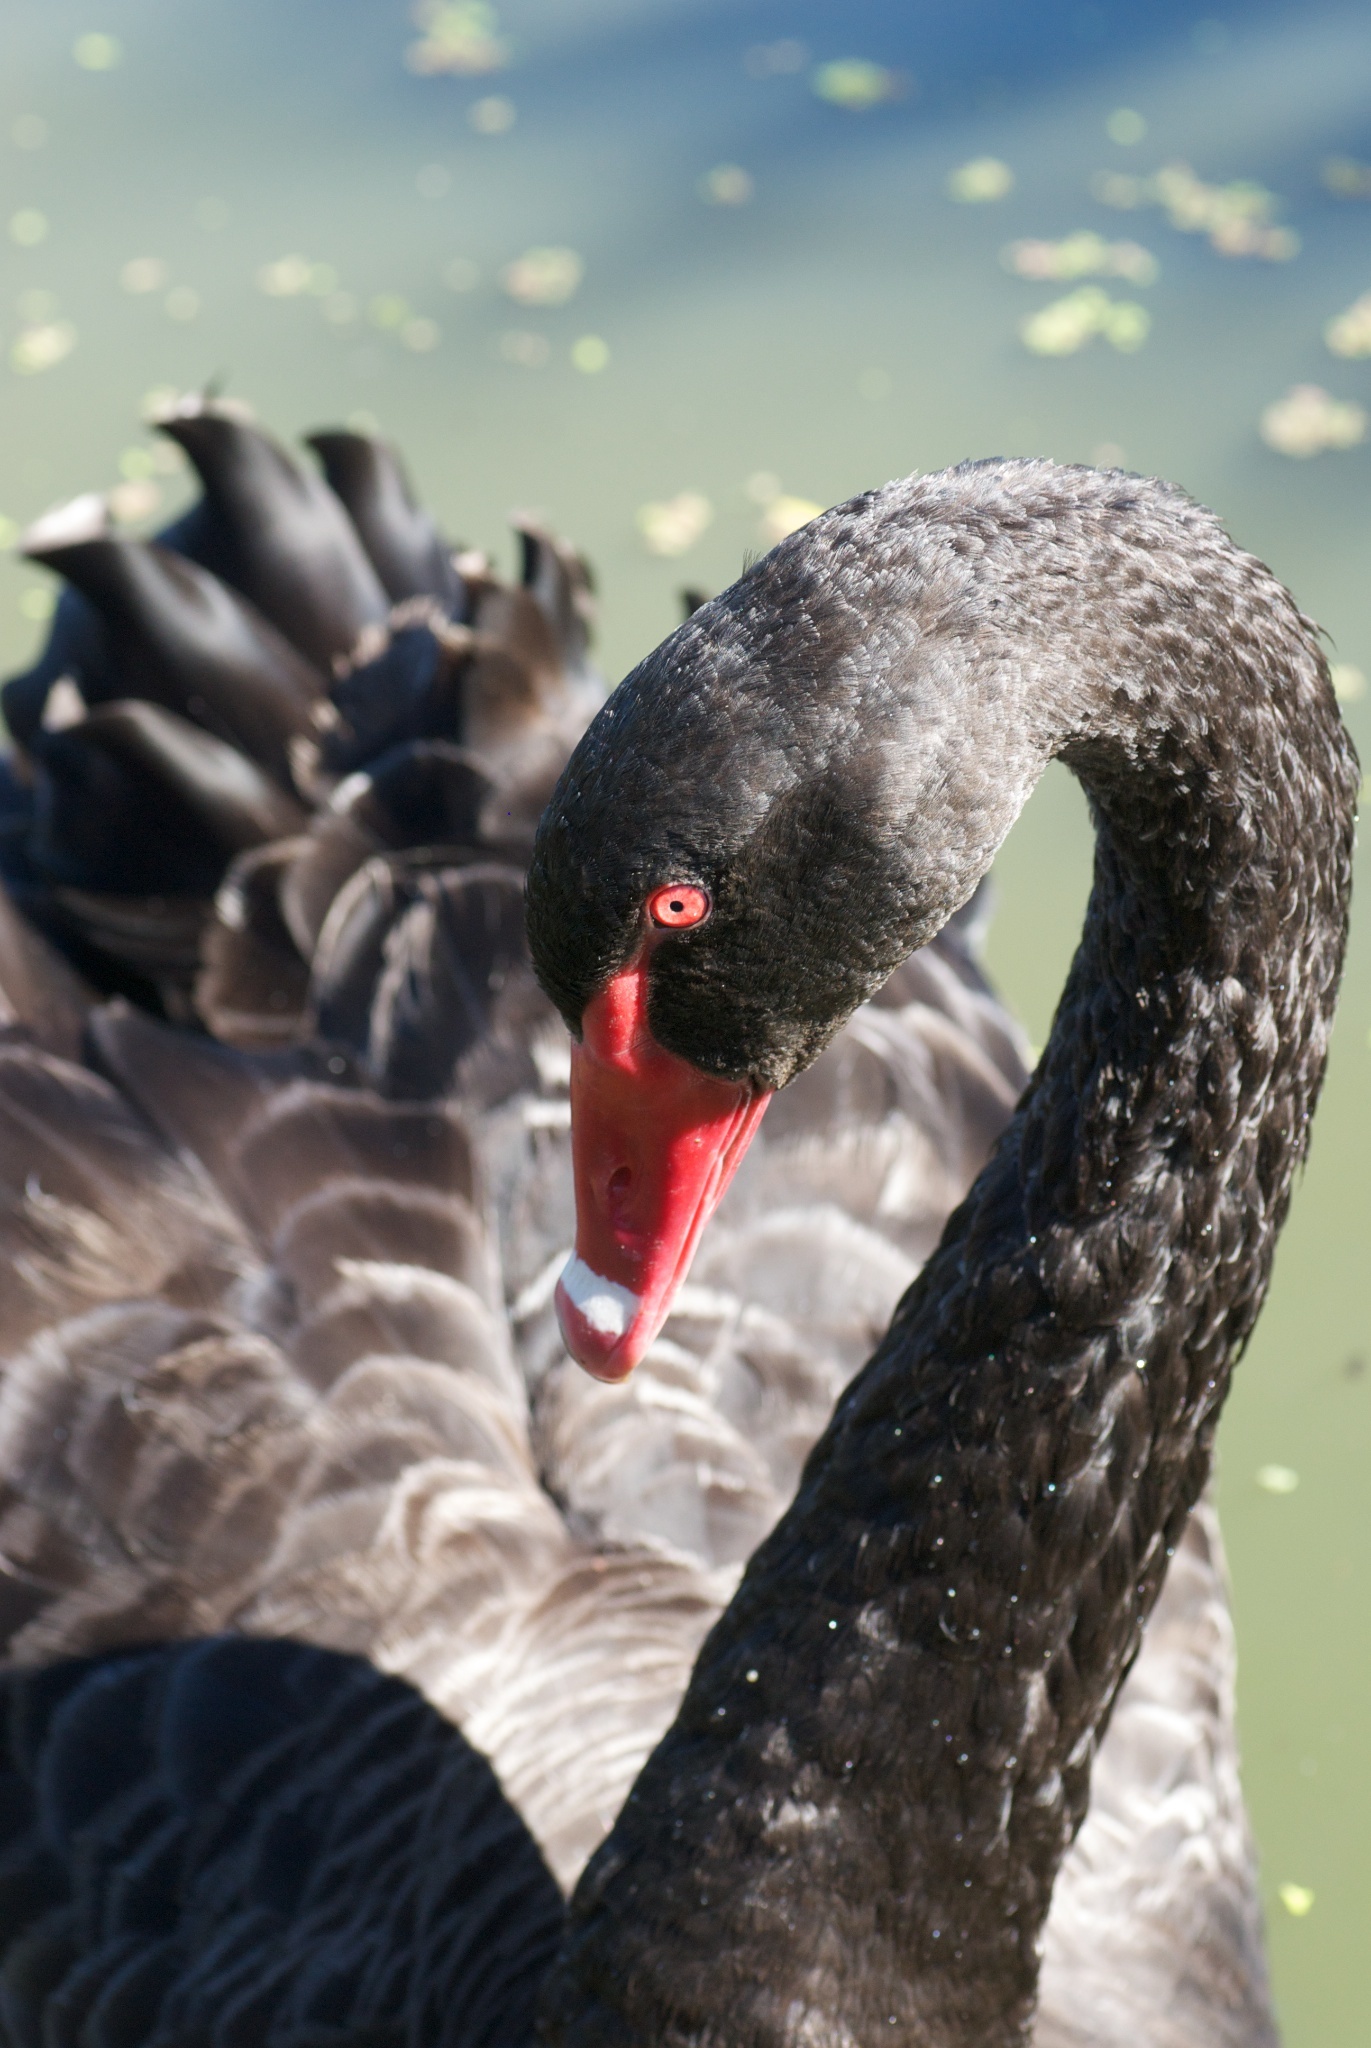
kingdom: Animalia
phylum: Chordata
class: Aves
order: Anseriformes
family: Anatidae
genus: Cygnus
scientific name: Cygnus atratus
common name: Black swan
